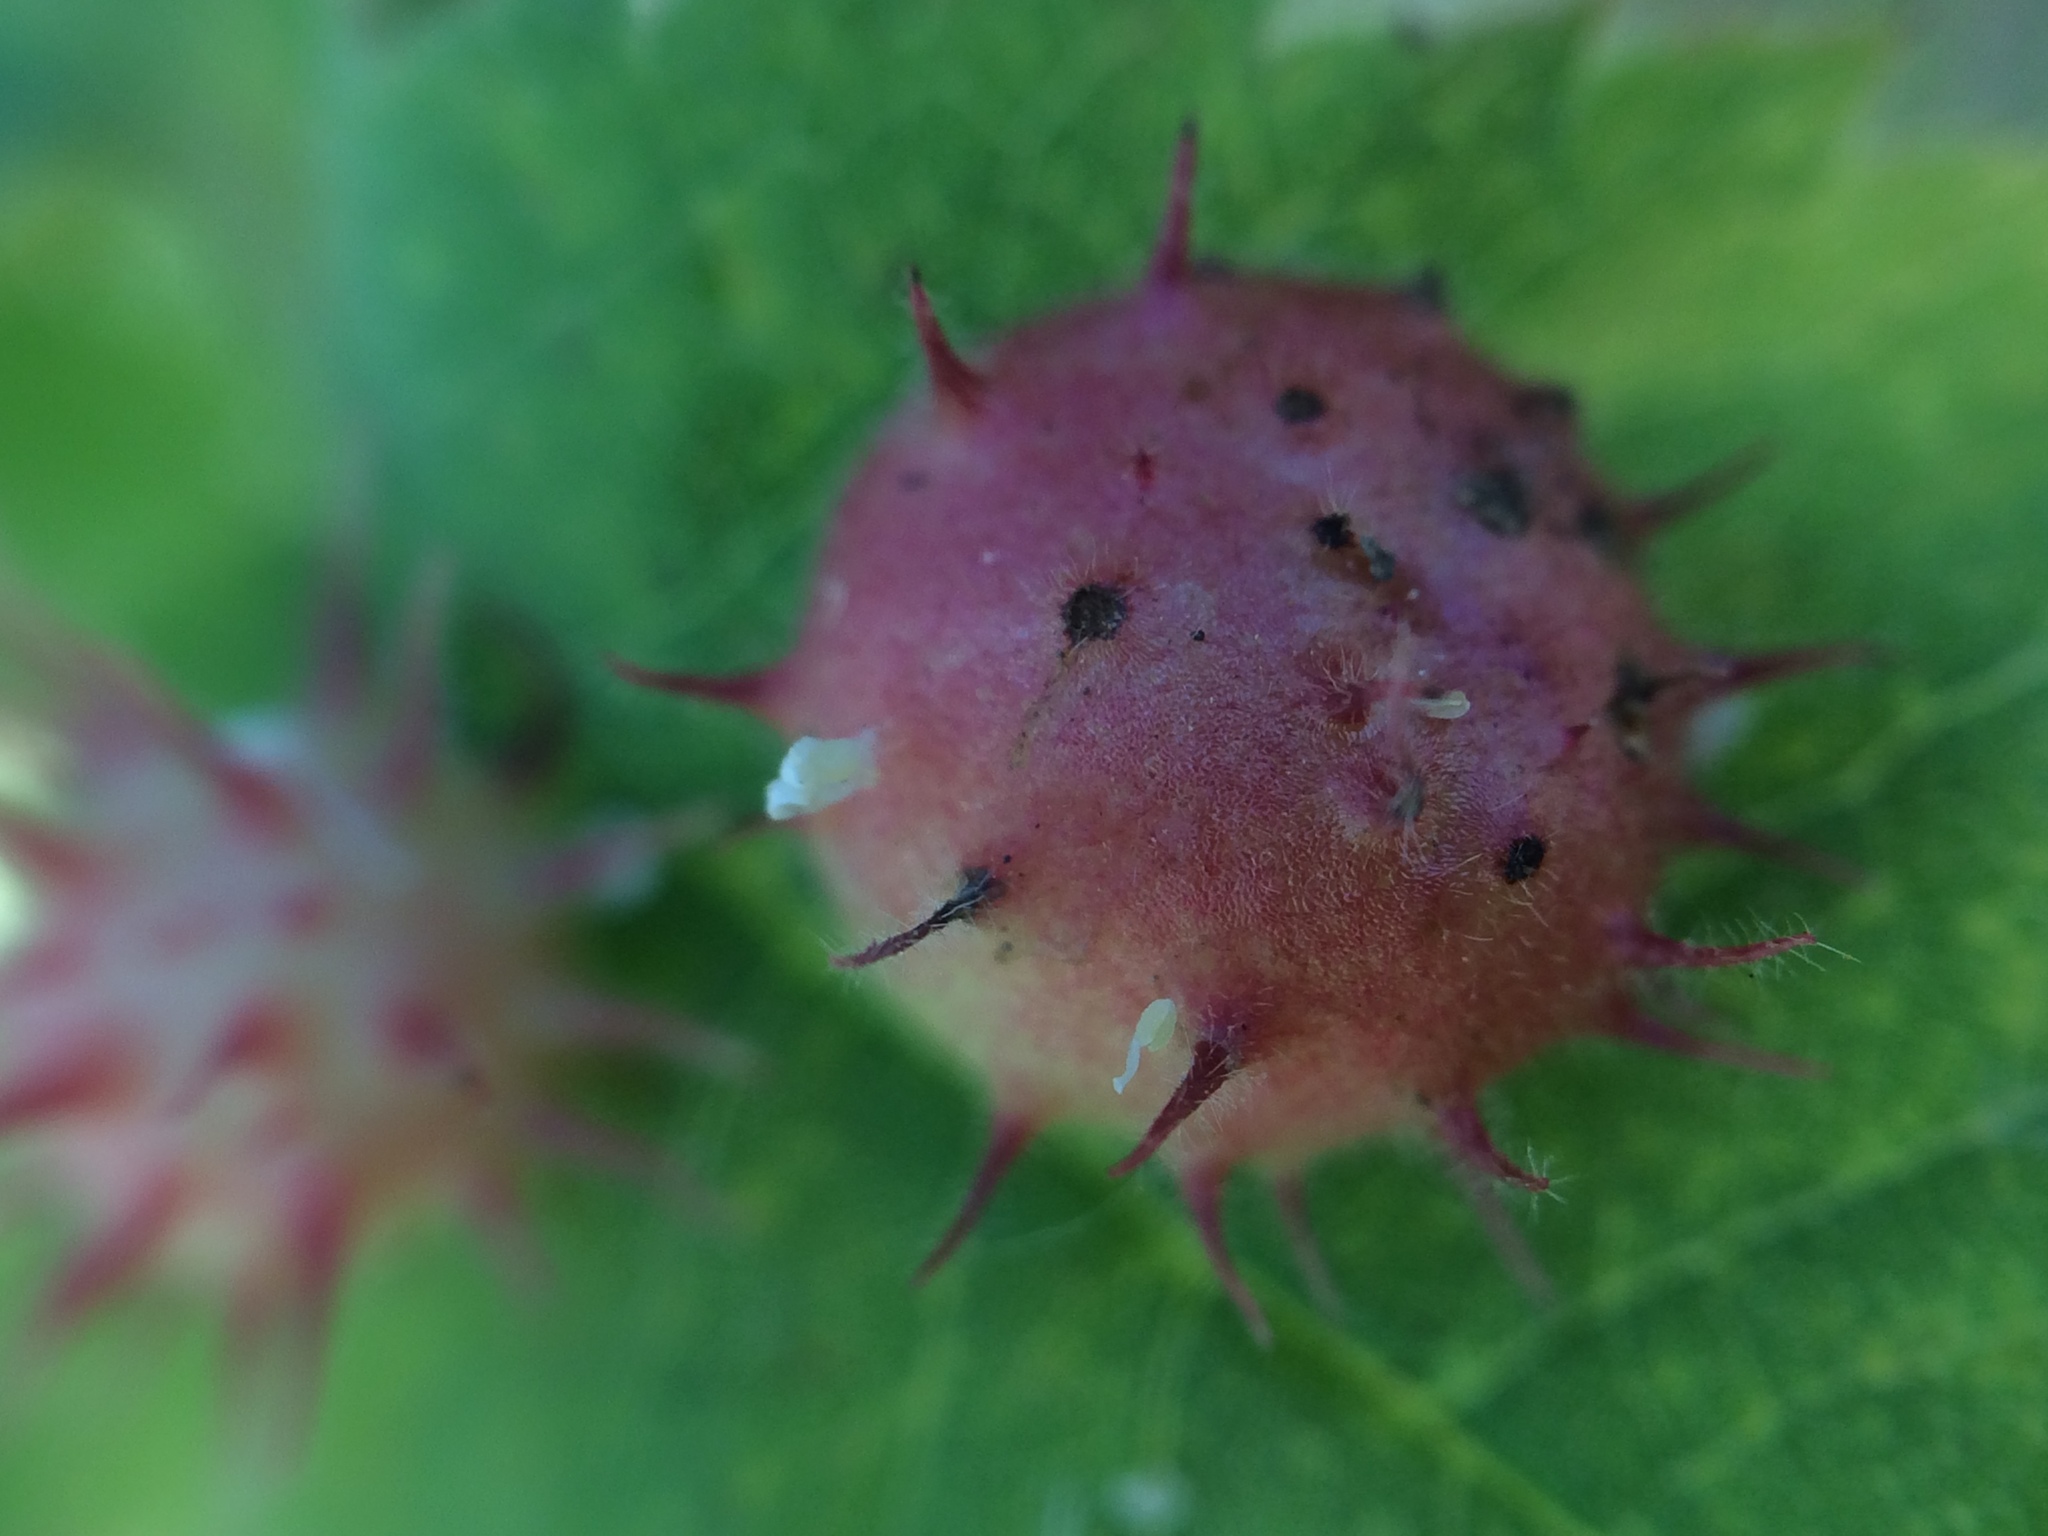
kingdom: Animalia
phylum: Arthropoda
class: Insecta
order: Hymenoptera
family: Cynipidae
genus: Diplolepis
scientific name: Diplolepis polita
